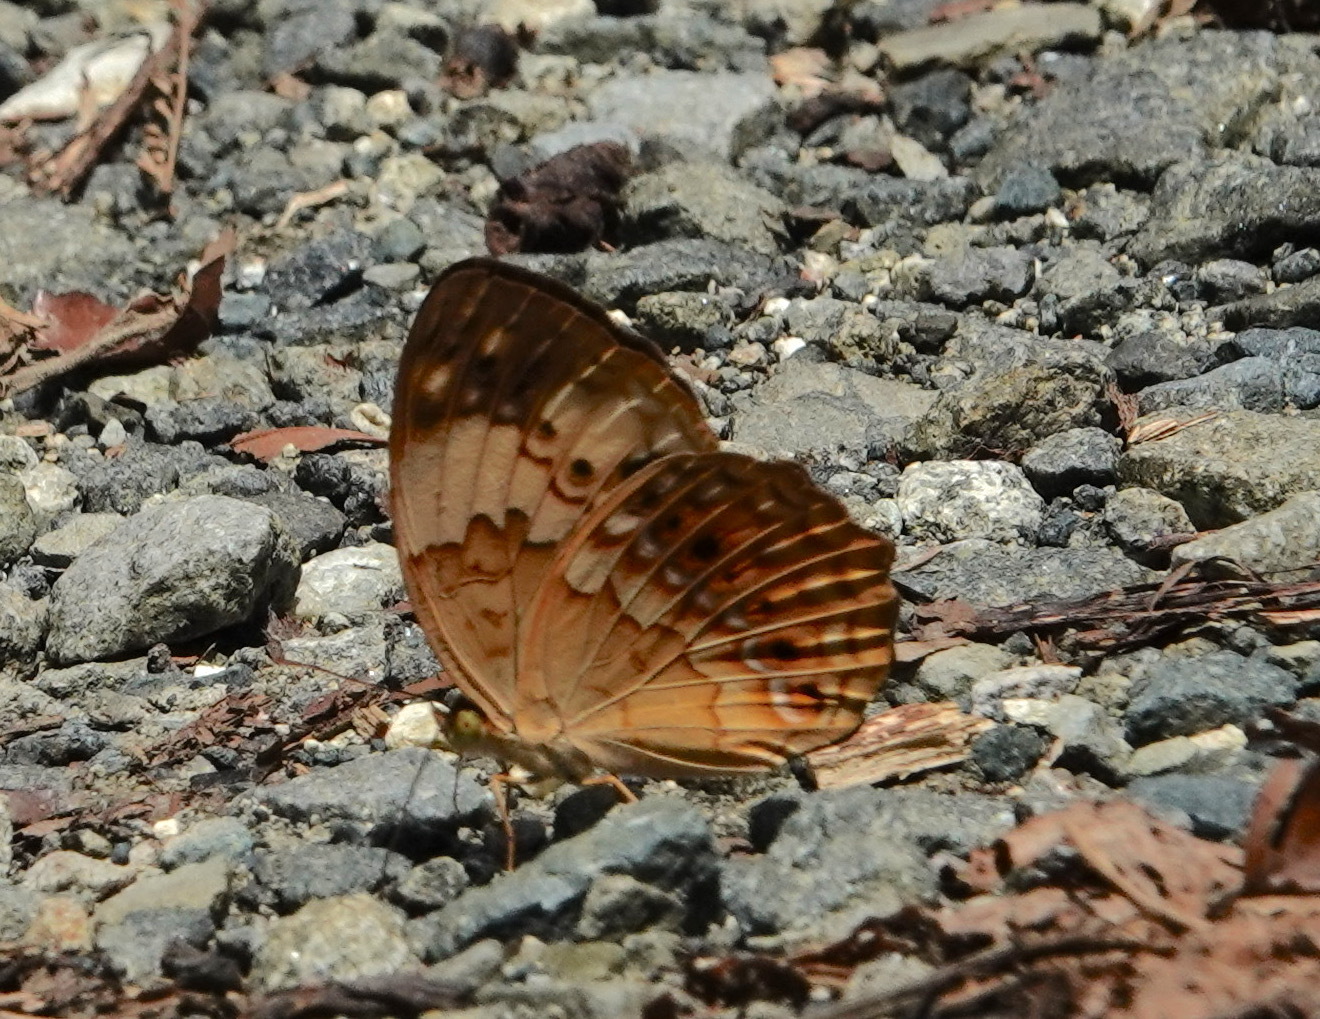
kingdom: Animalia
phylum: Arthropoda
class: Insecta
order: Lepidoptera
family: Nymphalidae
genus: Cupha
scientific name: Cupha erymanthis
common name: Rustic
